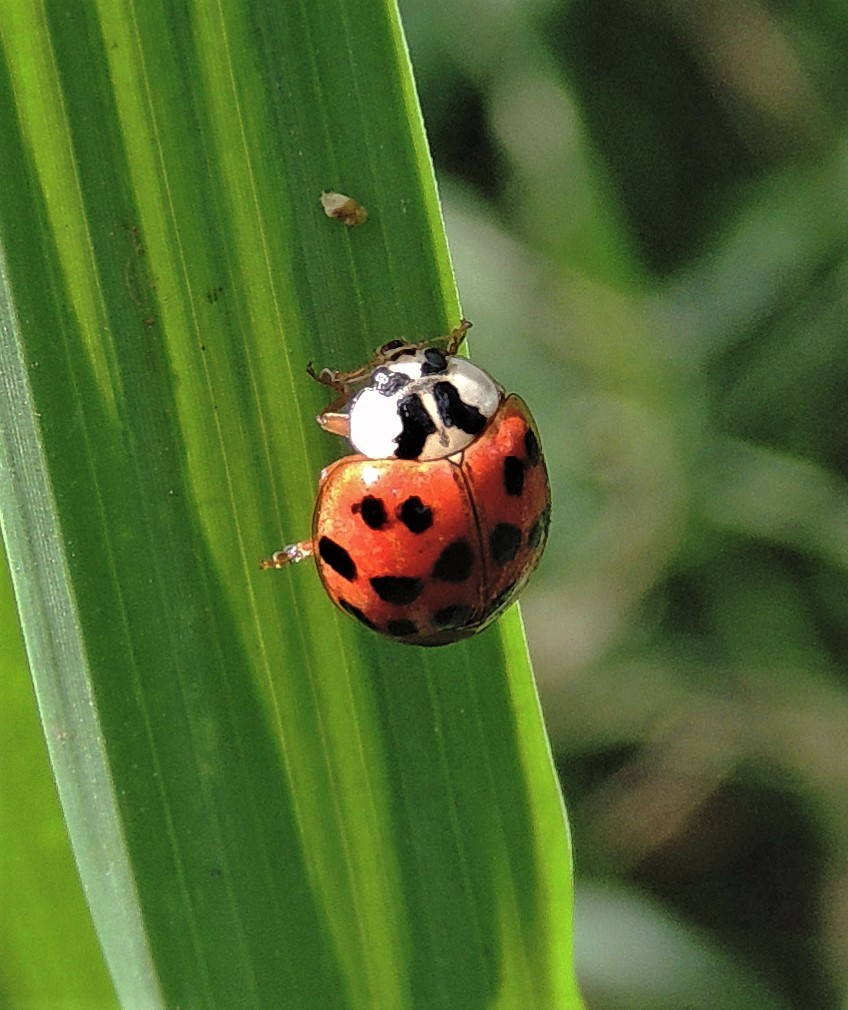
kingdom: Animalia
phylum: Arthropoda
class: Insecta
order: Coleoptera
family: Coccinellidae
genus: Harmonia
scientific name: Harmonia axyridis
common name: Harlequin ladybird
